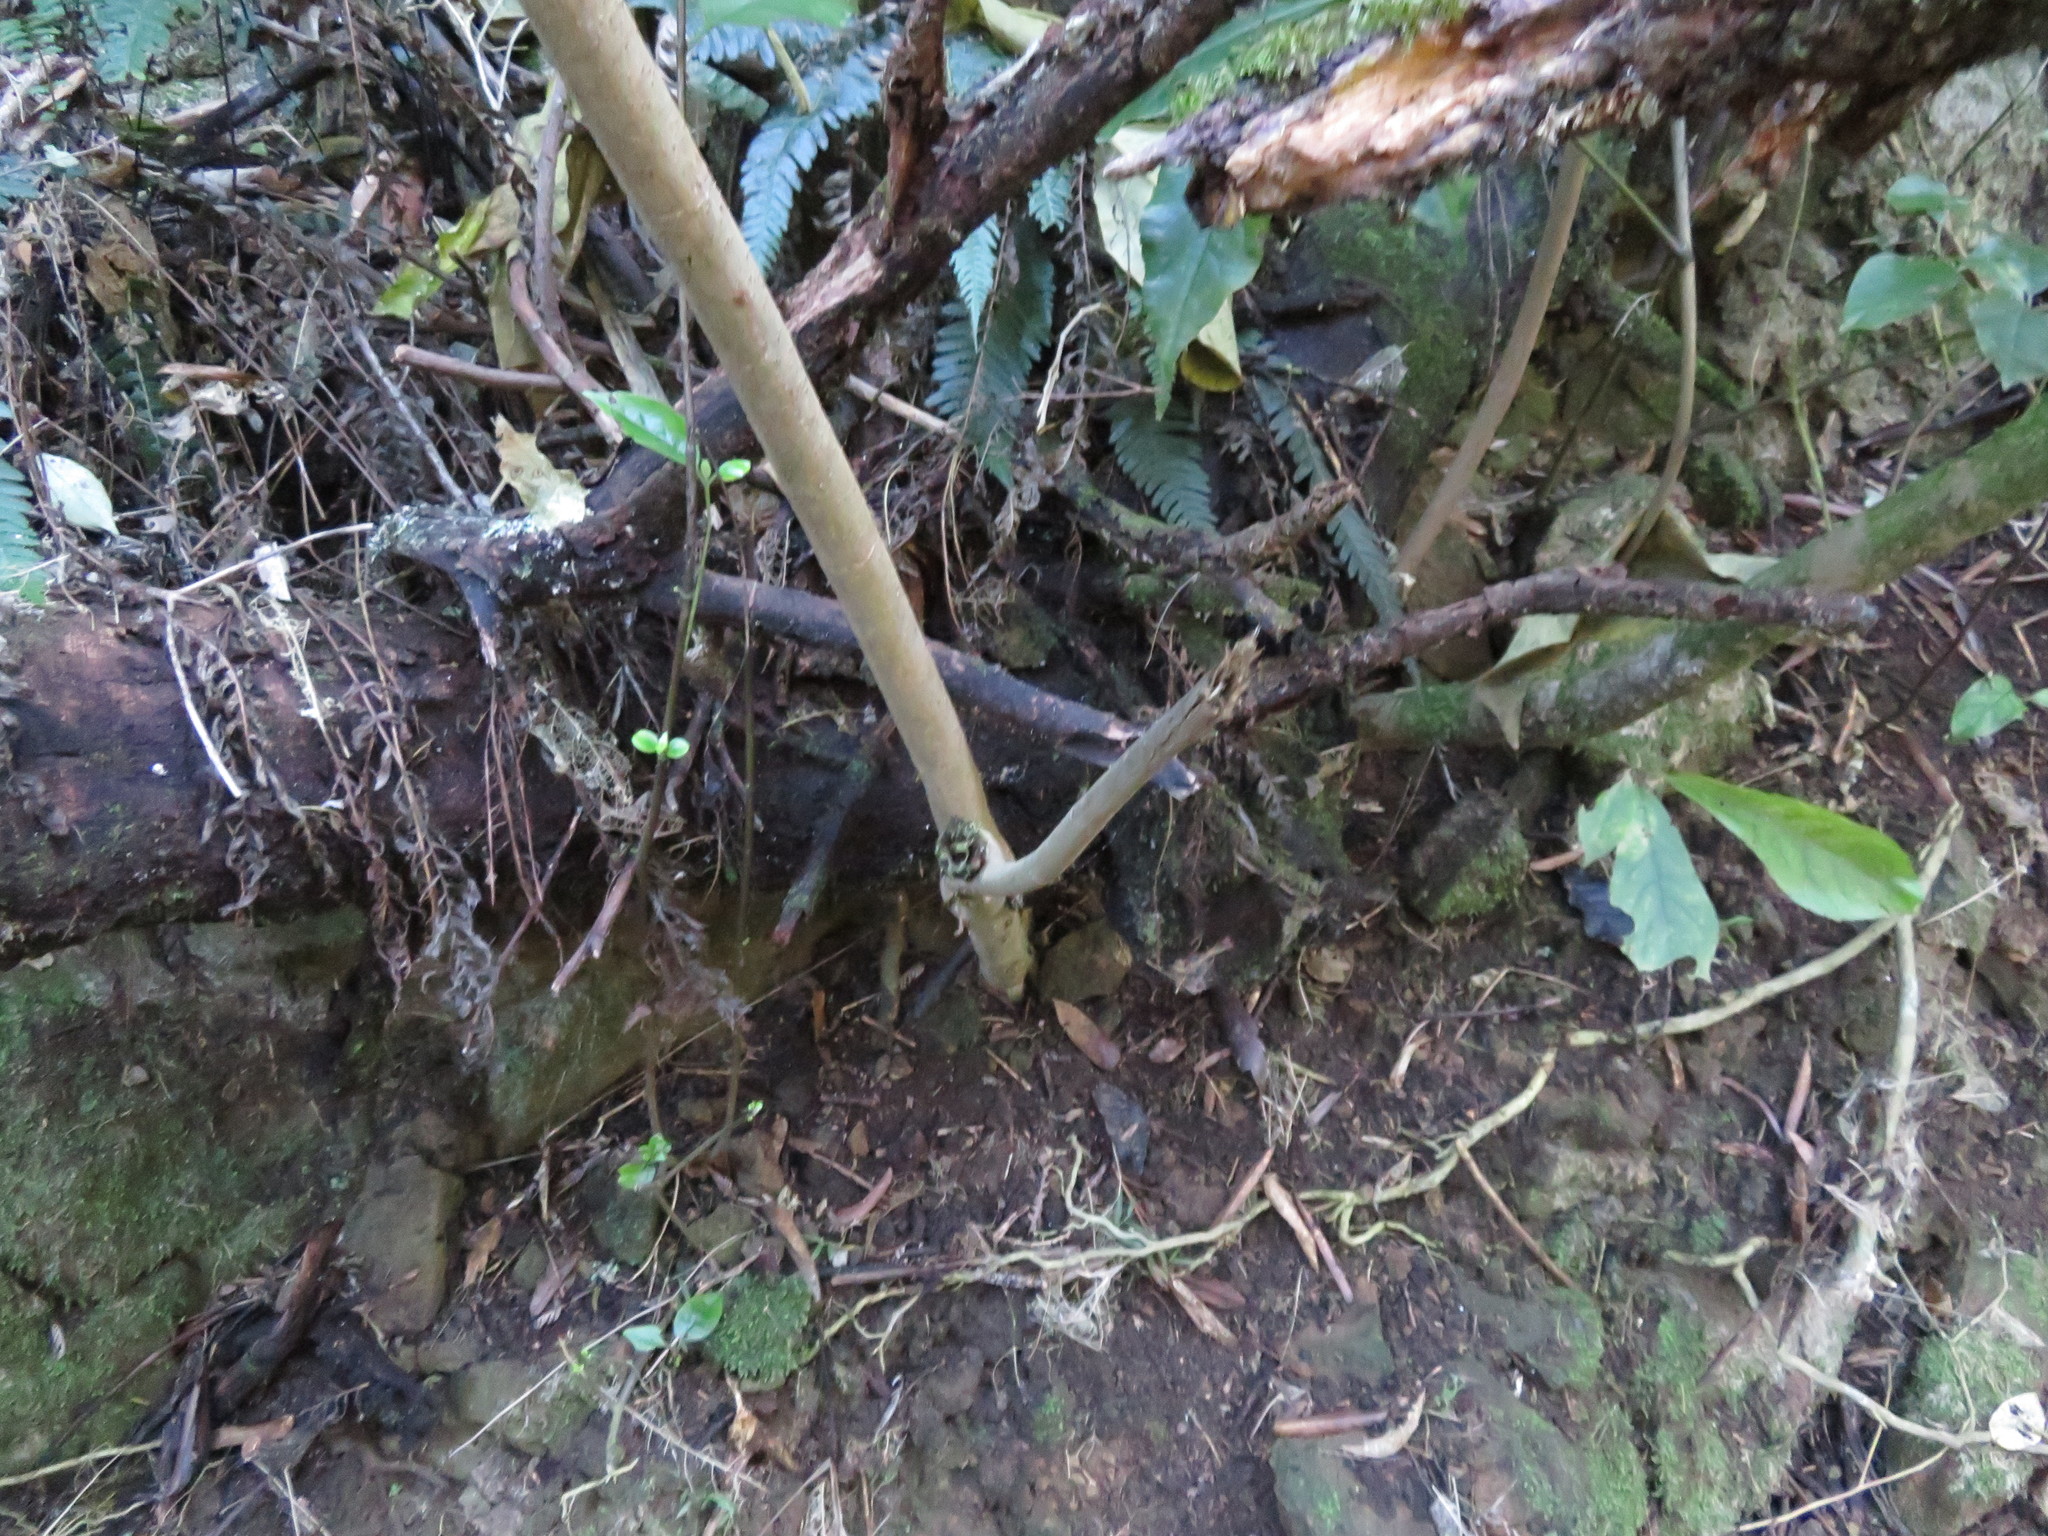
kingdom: Plantae
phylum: Tracheophyta
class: Magnoliopsida
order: Apiales
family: Araliaceae
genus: Schefflera
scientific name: Schefflera digitata
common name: Pate
